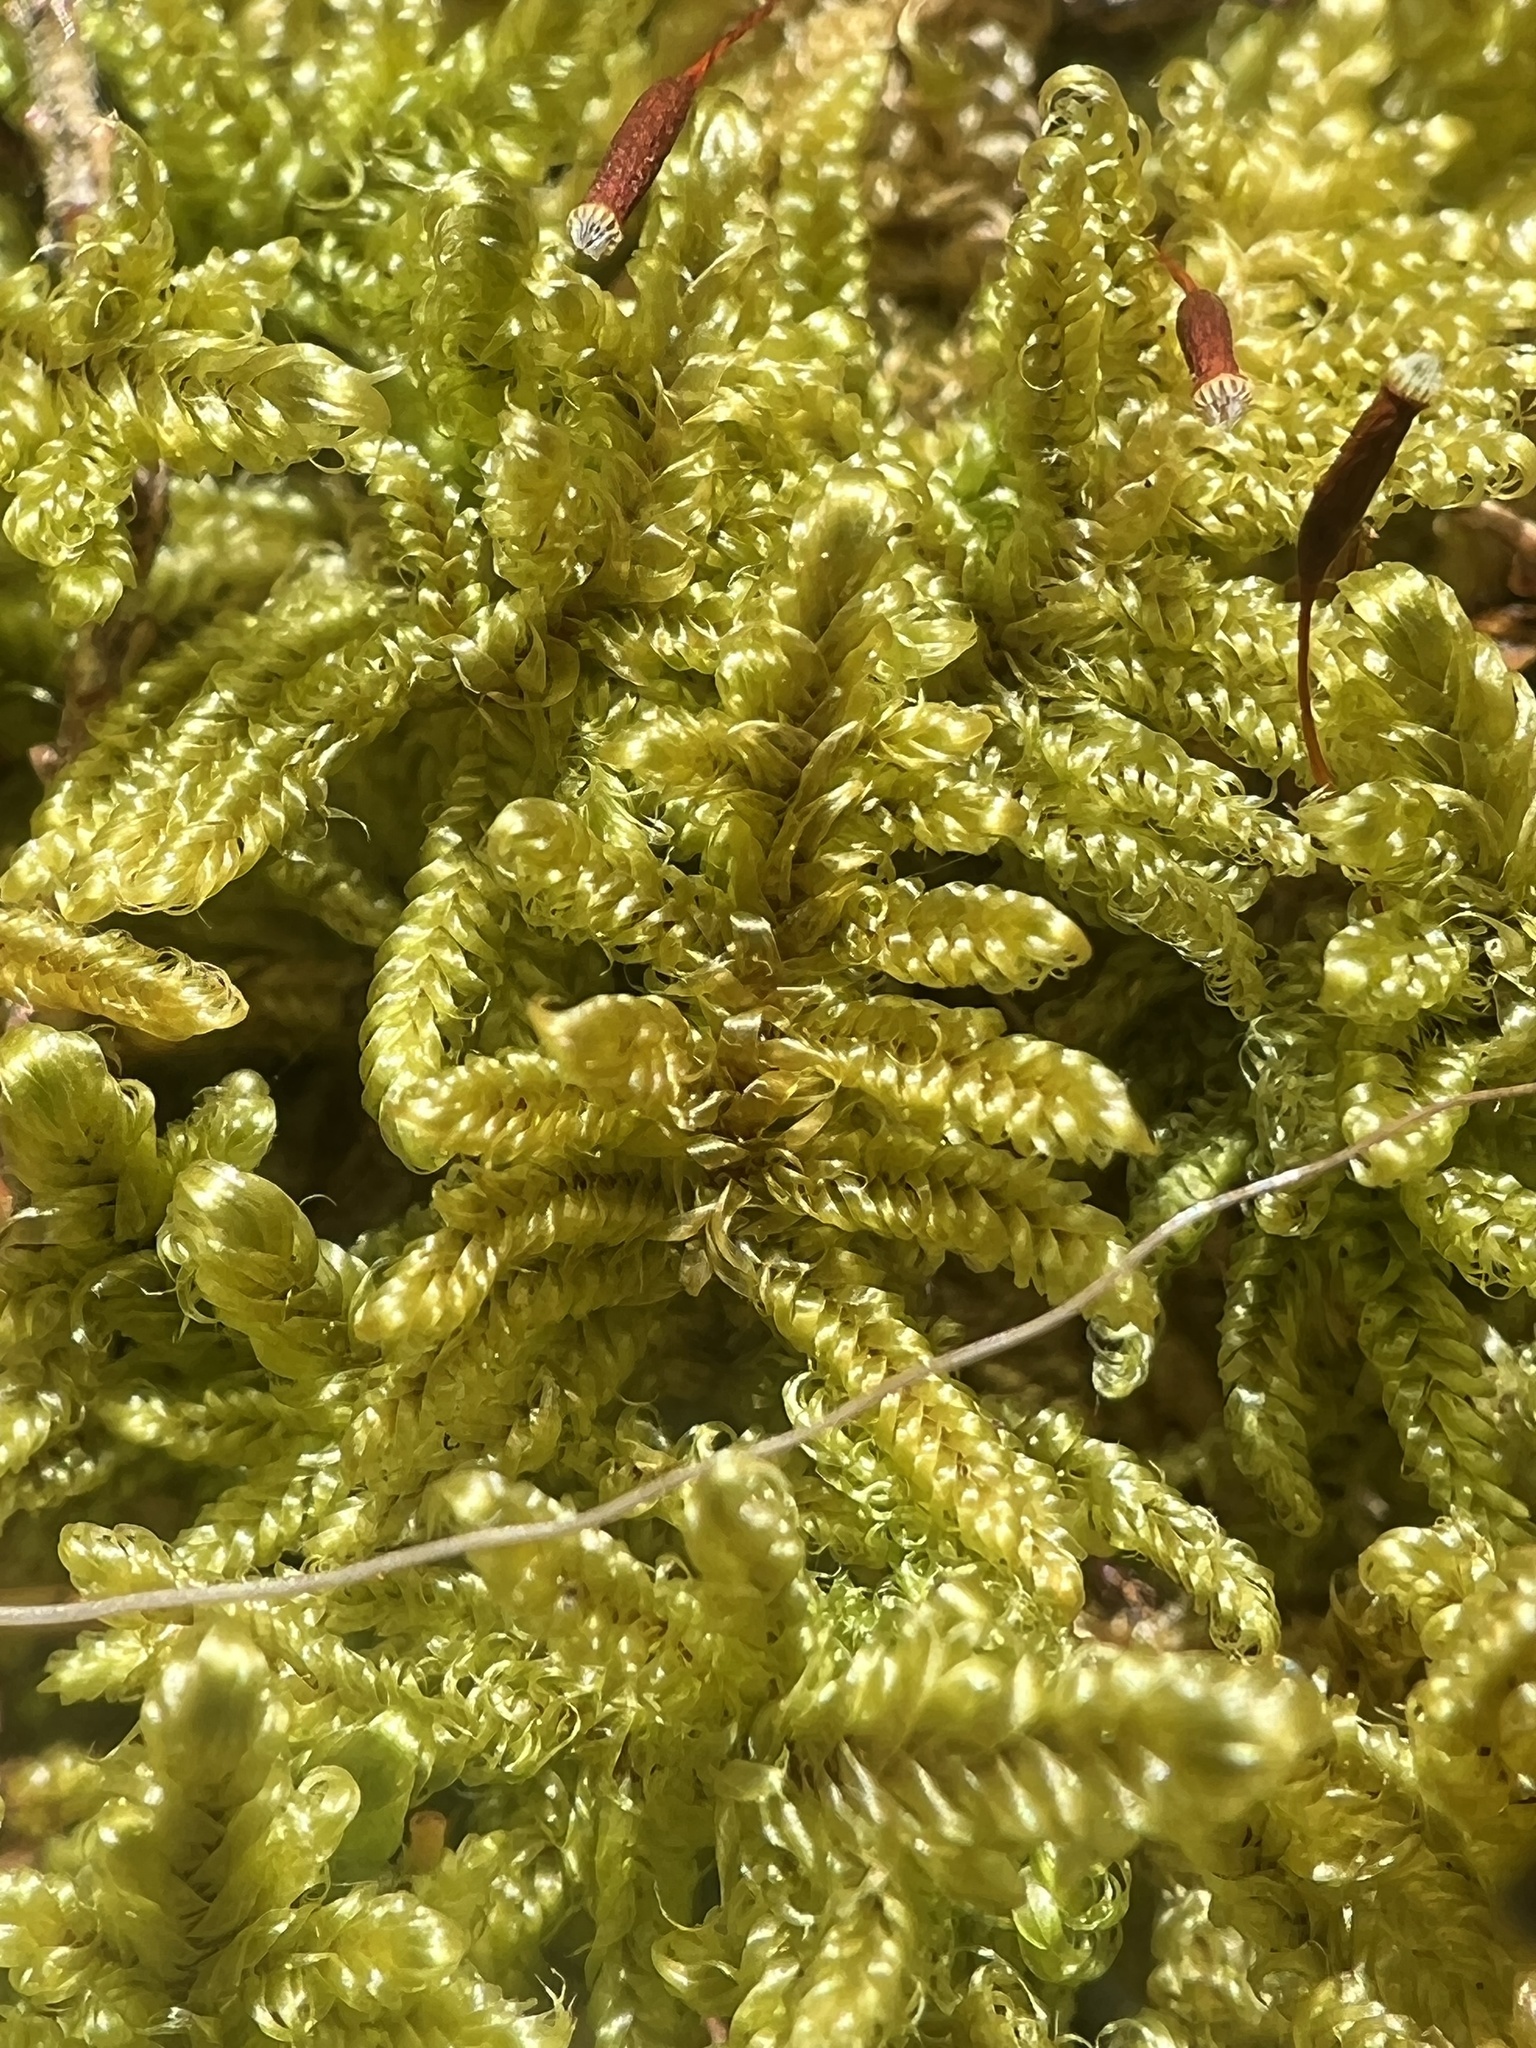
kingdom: Plantae
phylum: Bryophyta
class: Bryopsida
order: Hypnales
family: Callicladiaceae
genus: Callicladium
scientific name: Callicladium imponens
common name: Brocade moss
